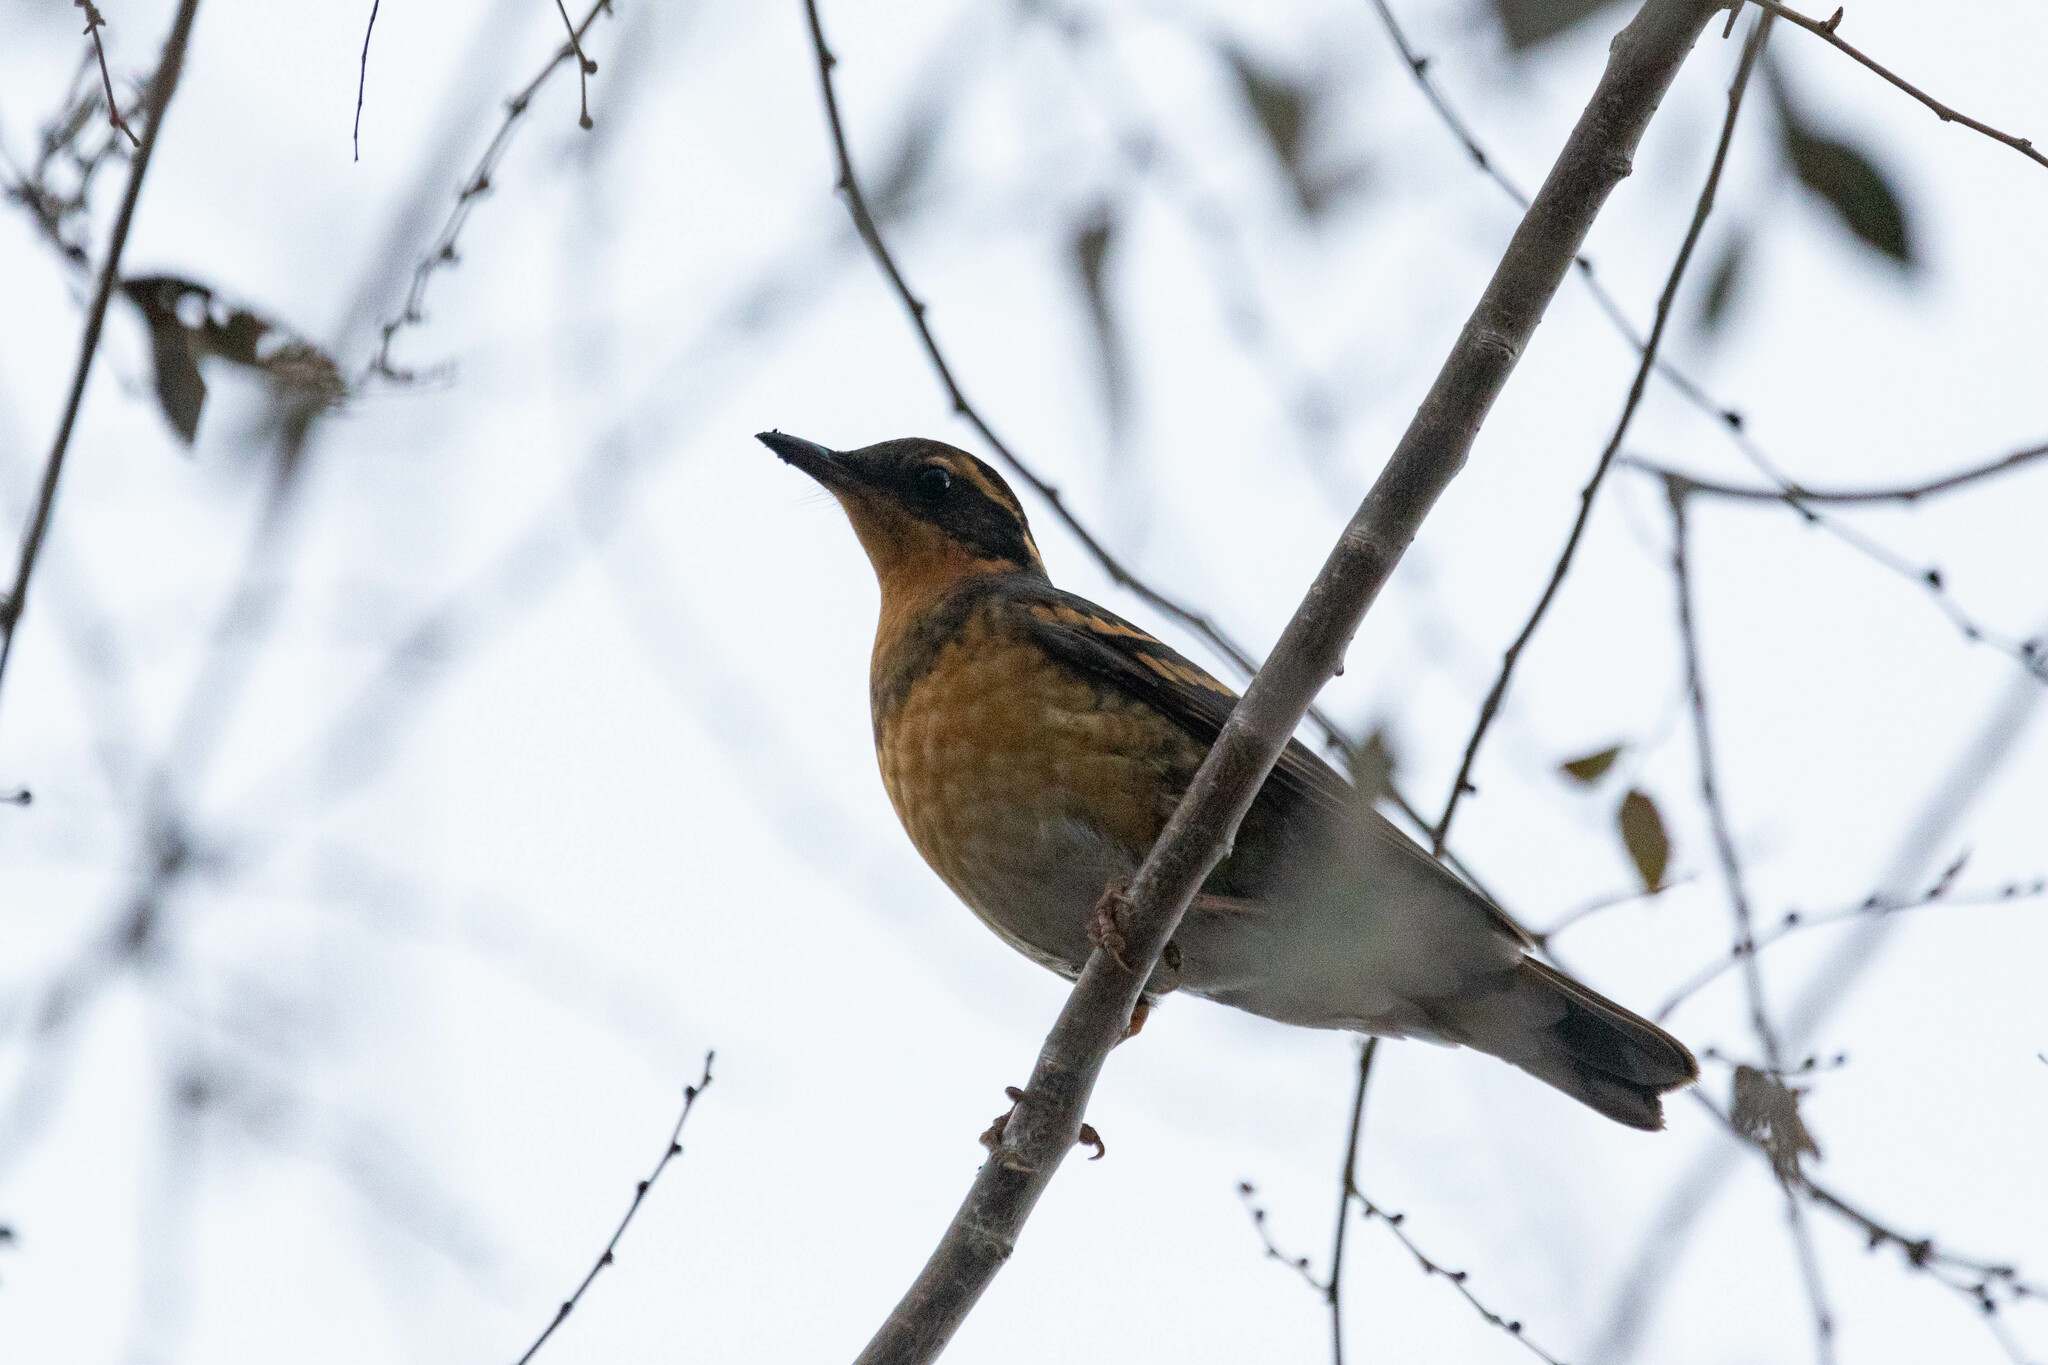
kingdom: Animalia
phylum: Chordata
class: Aves
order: Passeriformes
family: Turdidae
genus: Ixoreus
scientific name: Ixoreus naevius
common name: Varied thrush
